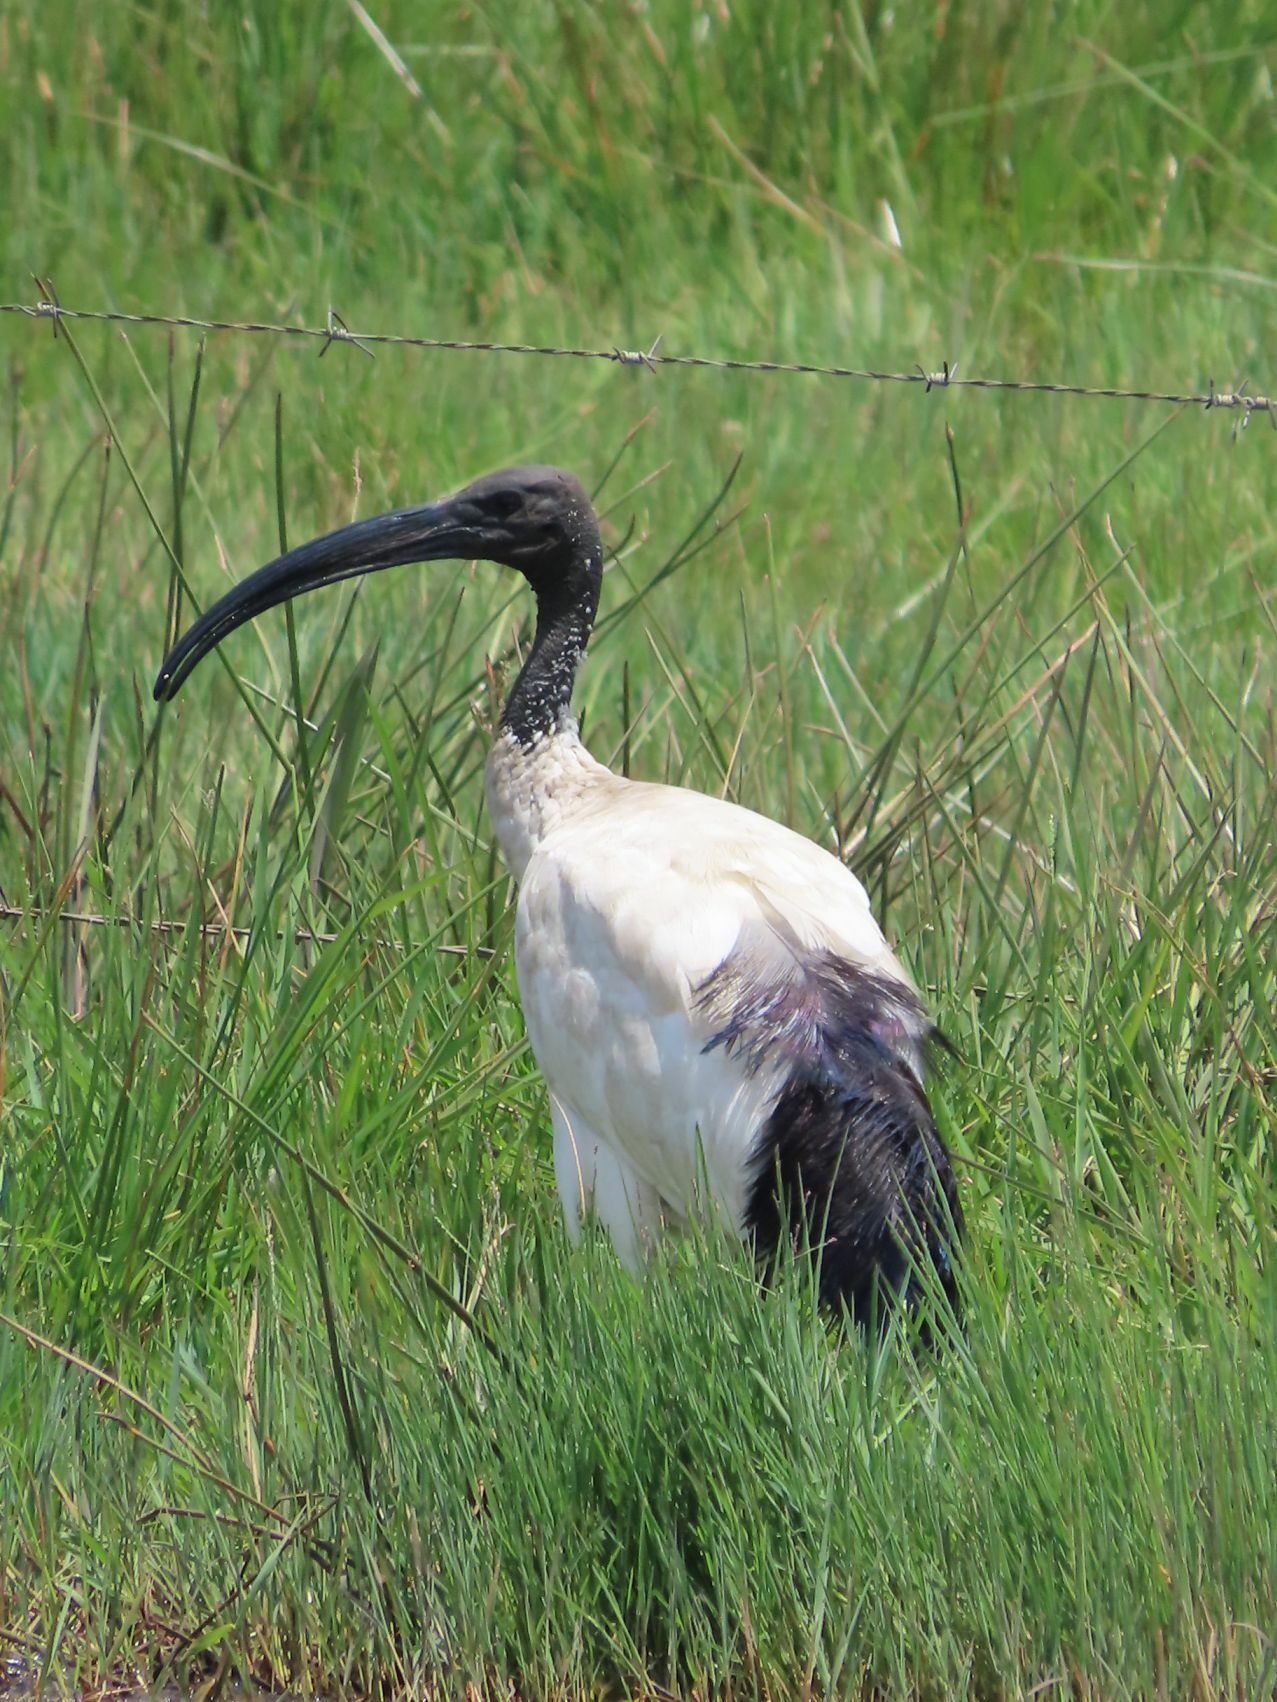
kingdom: Animalia
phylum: Chordata
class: Aves
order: Pelecaniformes
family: Threskiornithidae
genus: Threskiornis
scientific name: Threskiornis aethiopicus
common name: Sacred ibis
